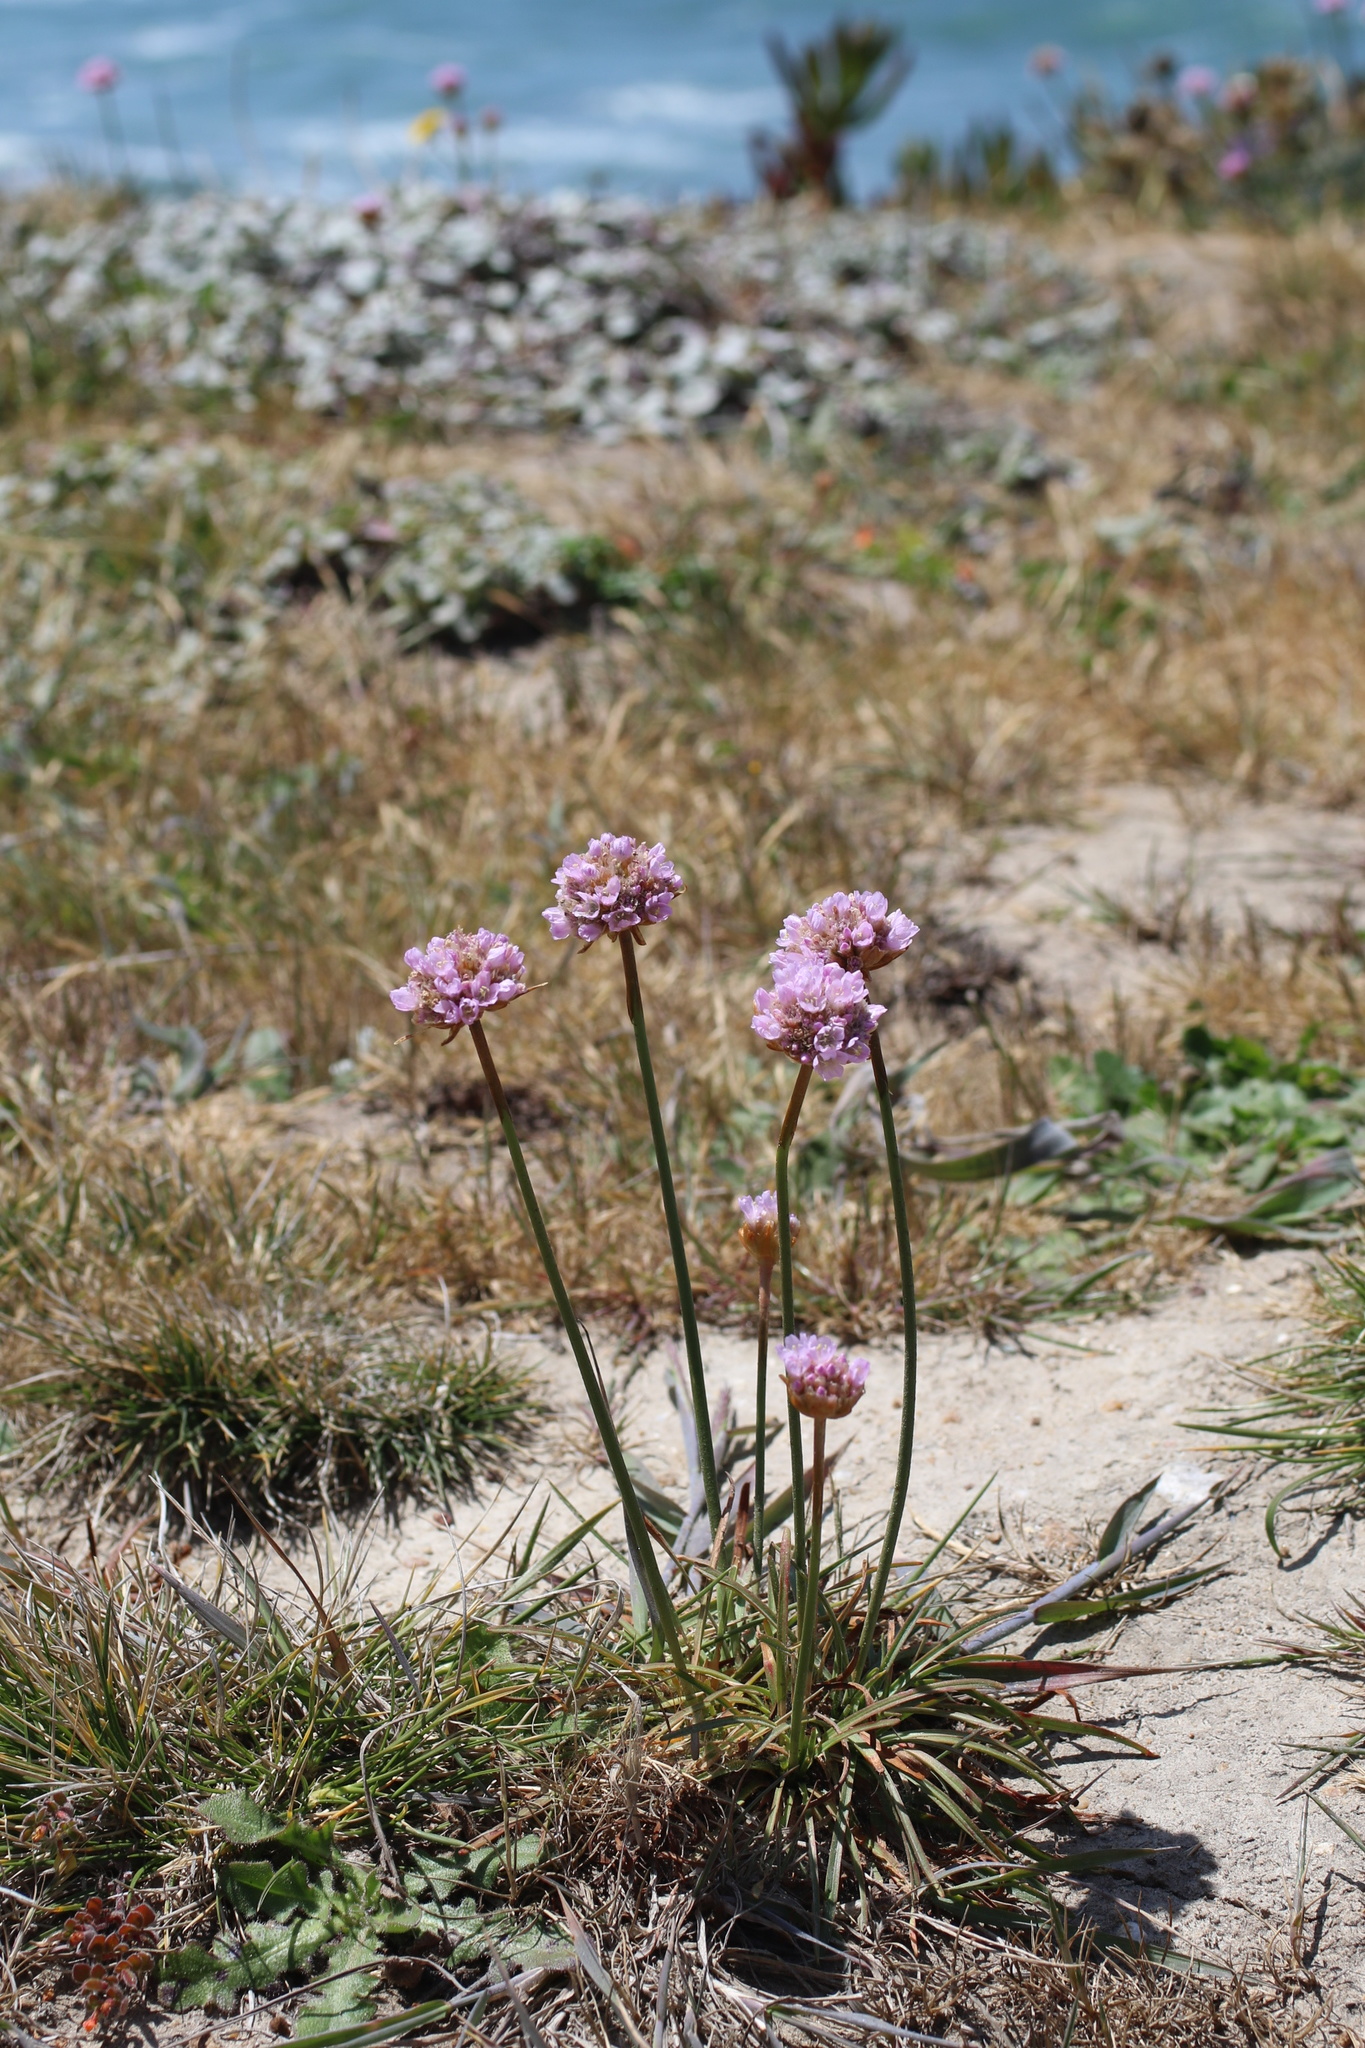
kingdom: Plantae
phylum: Tracheophyta
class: Magnoliopsida
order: Caryophyllales
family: Plumbaginaceae
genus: Armeria
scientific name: Armeria maritima
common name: Thrift
